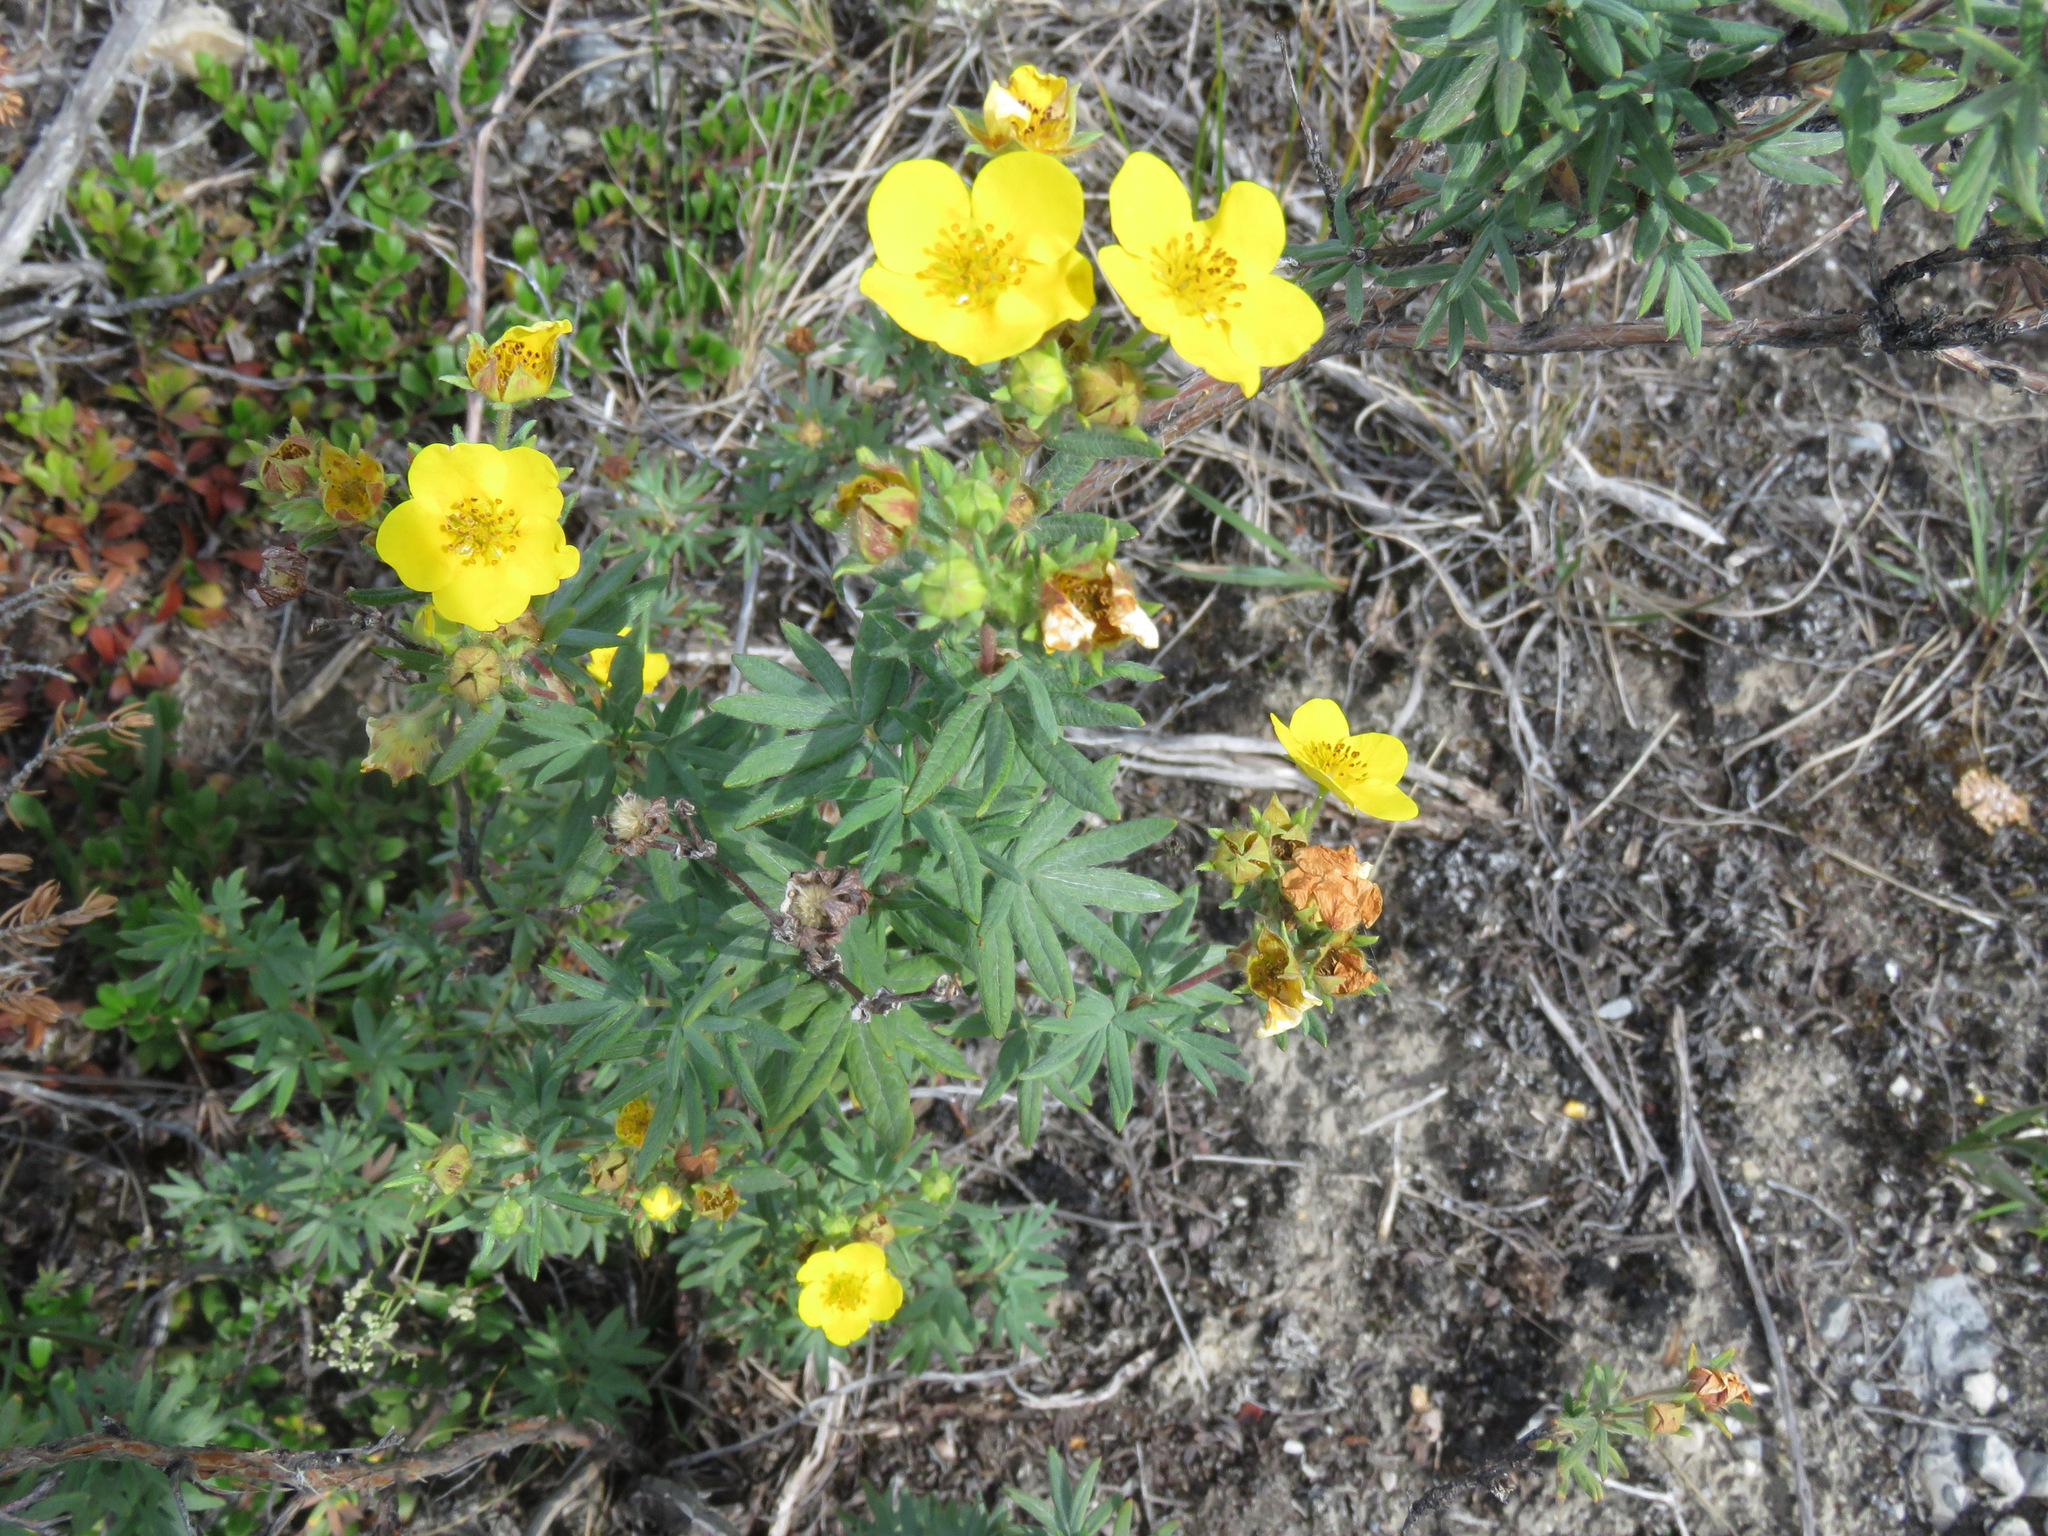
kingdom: Plantae
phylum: Tracheophyta
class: Magnoliopsida
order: Rosales
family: Rosaceae
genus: Dasiphora
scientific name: Dasiphora fruticosa
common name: Shrubby cinquefoil
